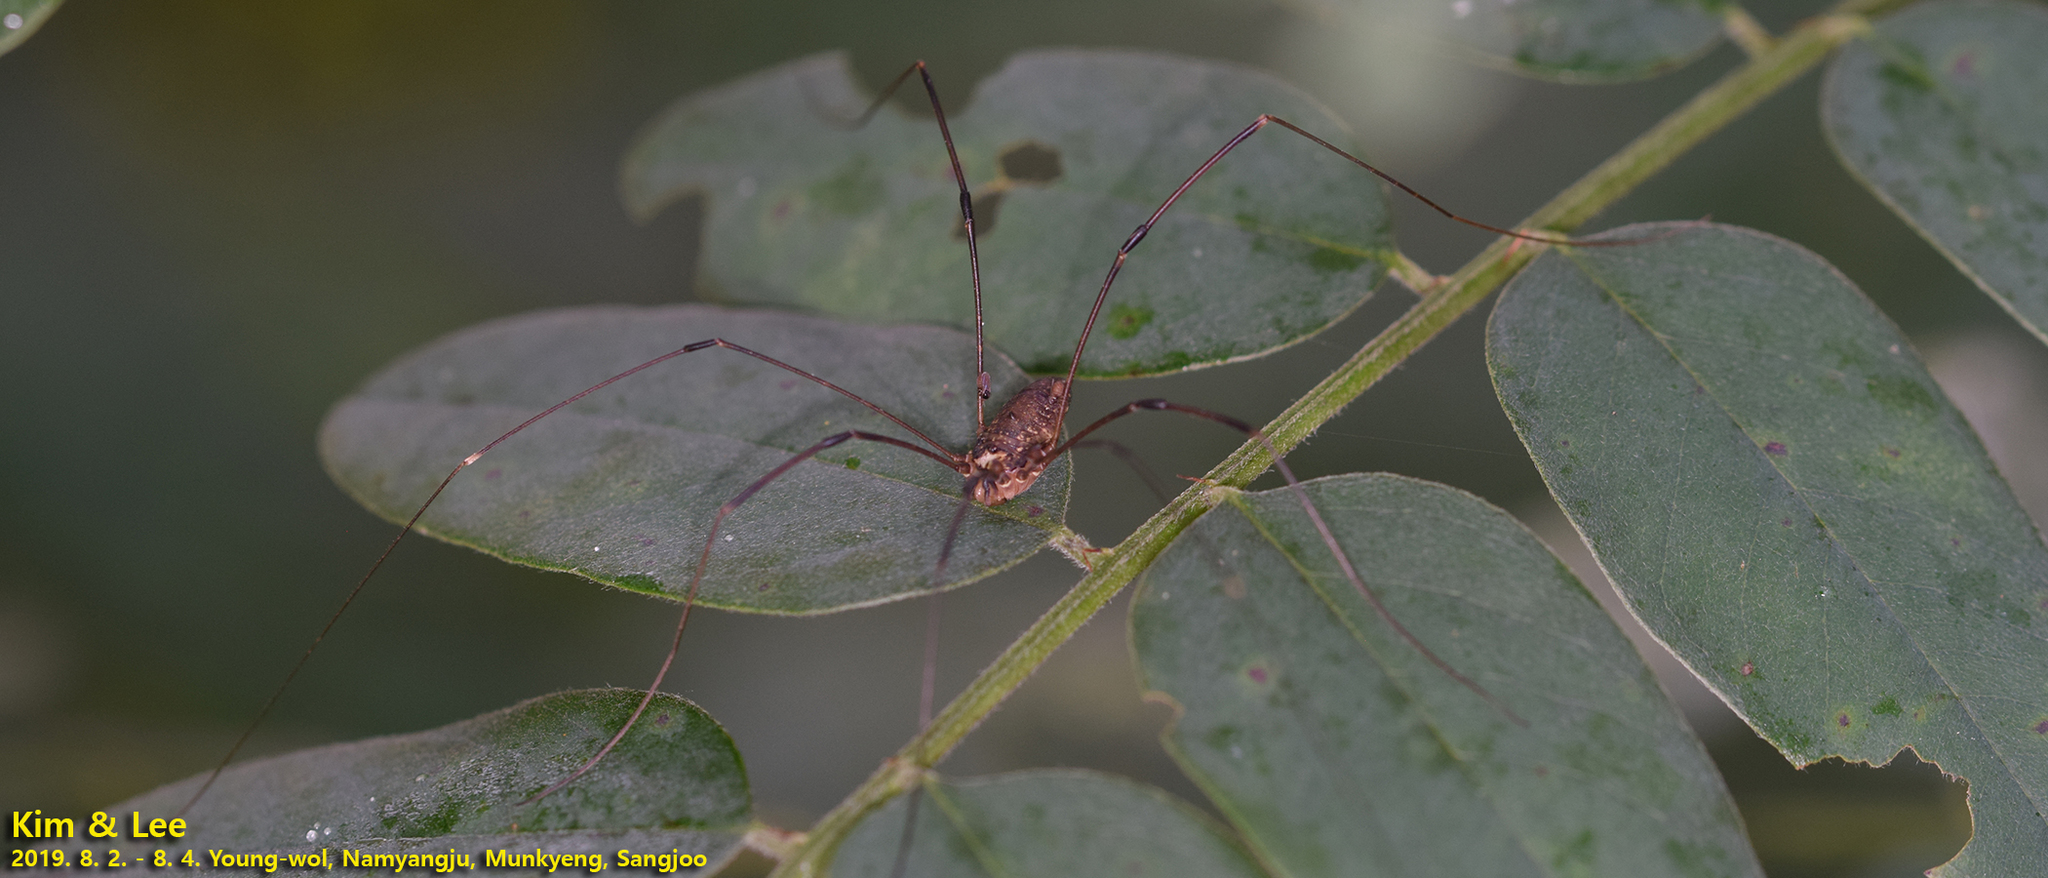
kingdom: Animalia
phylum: Arthropoda
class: Arachnida
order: Opiliones
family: Sclerosomatidae
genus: Thunbergia
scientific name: Thunbergia grandis
